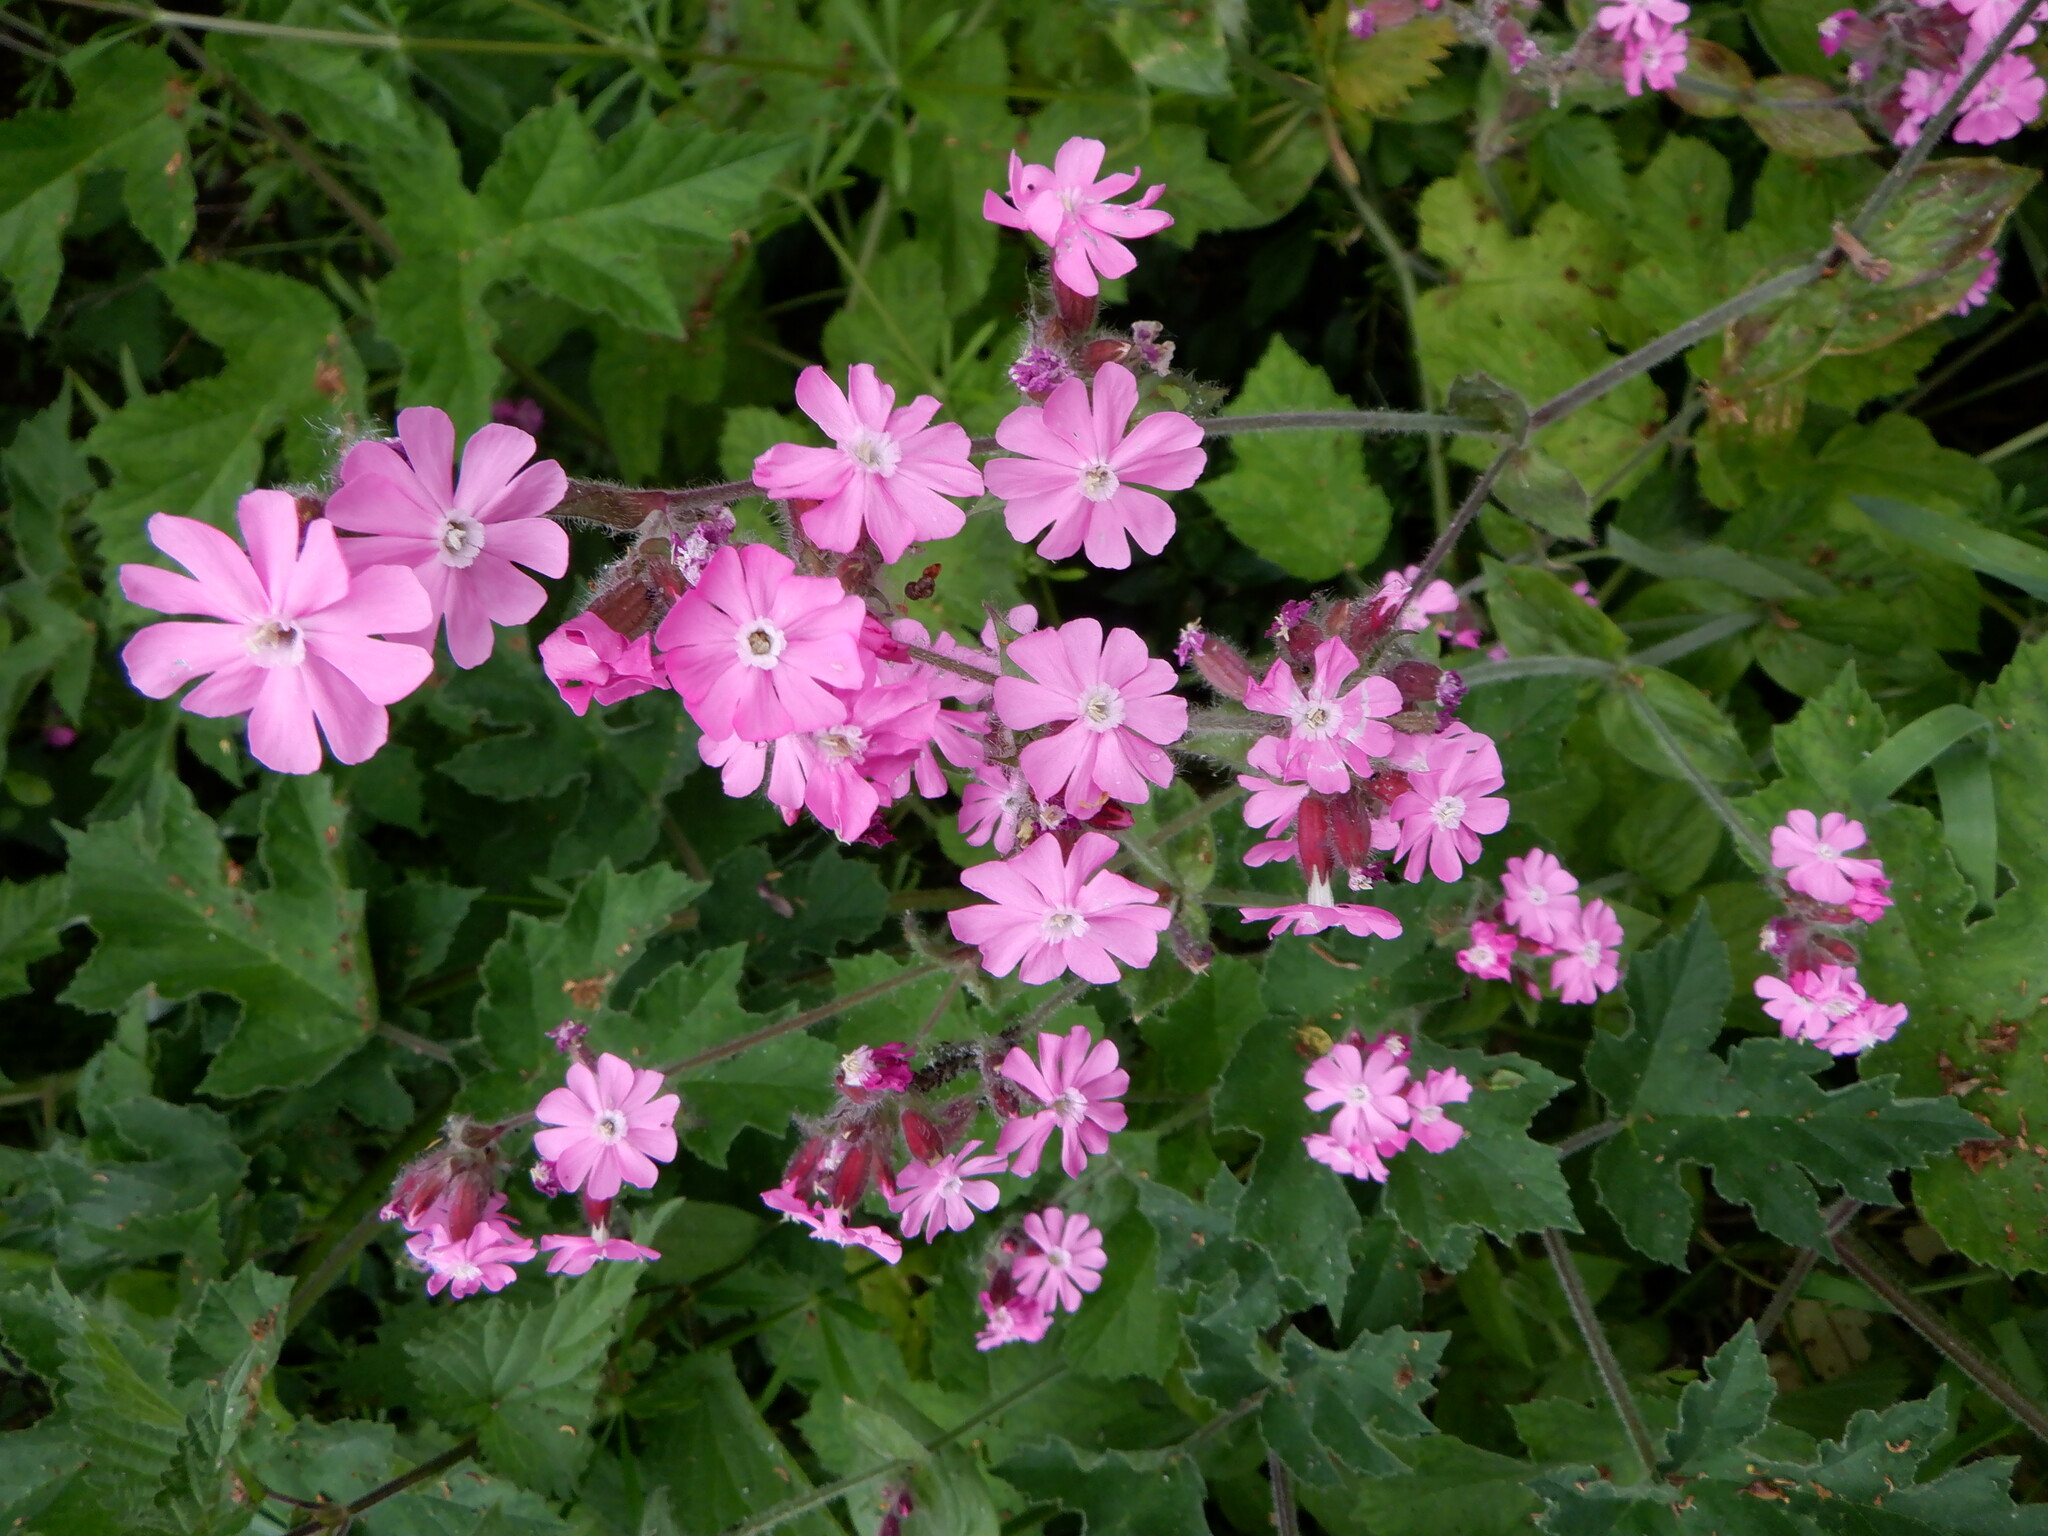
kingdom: Plantae
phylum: Tracheophyta
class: Magnoliopsida
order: Caryophyllales
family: Caryophyllaceae
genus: Silene
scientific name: Silene dioica
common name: Red campion
